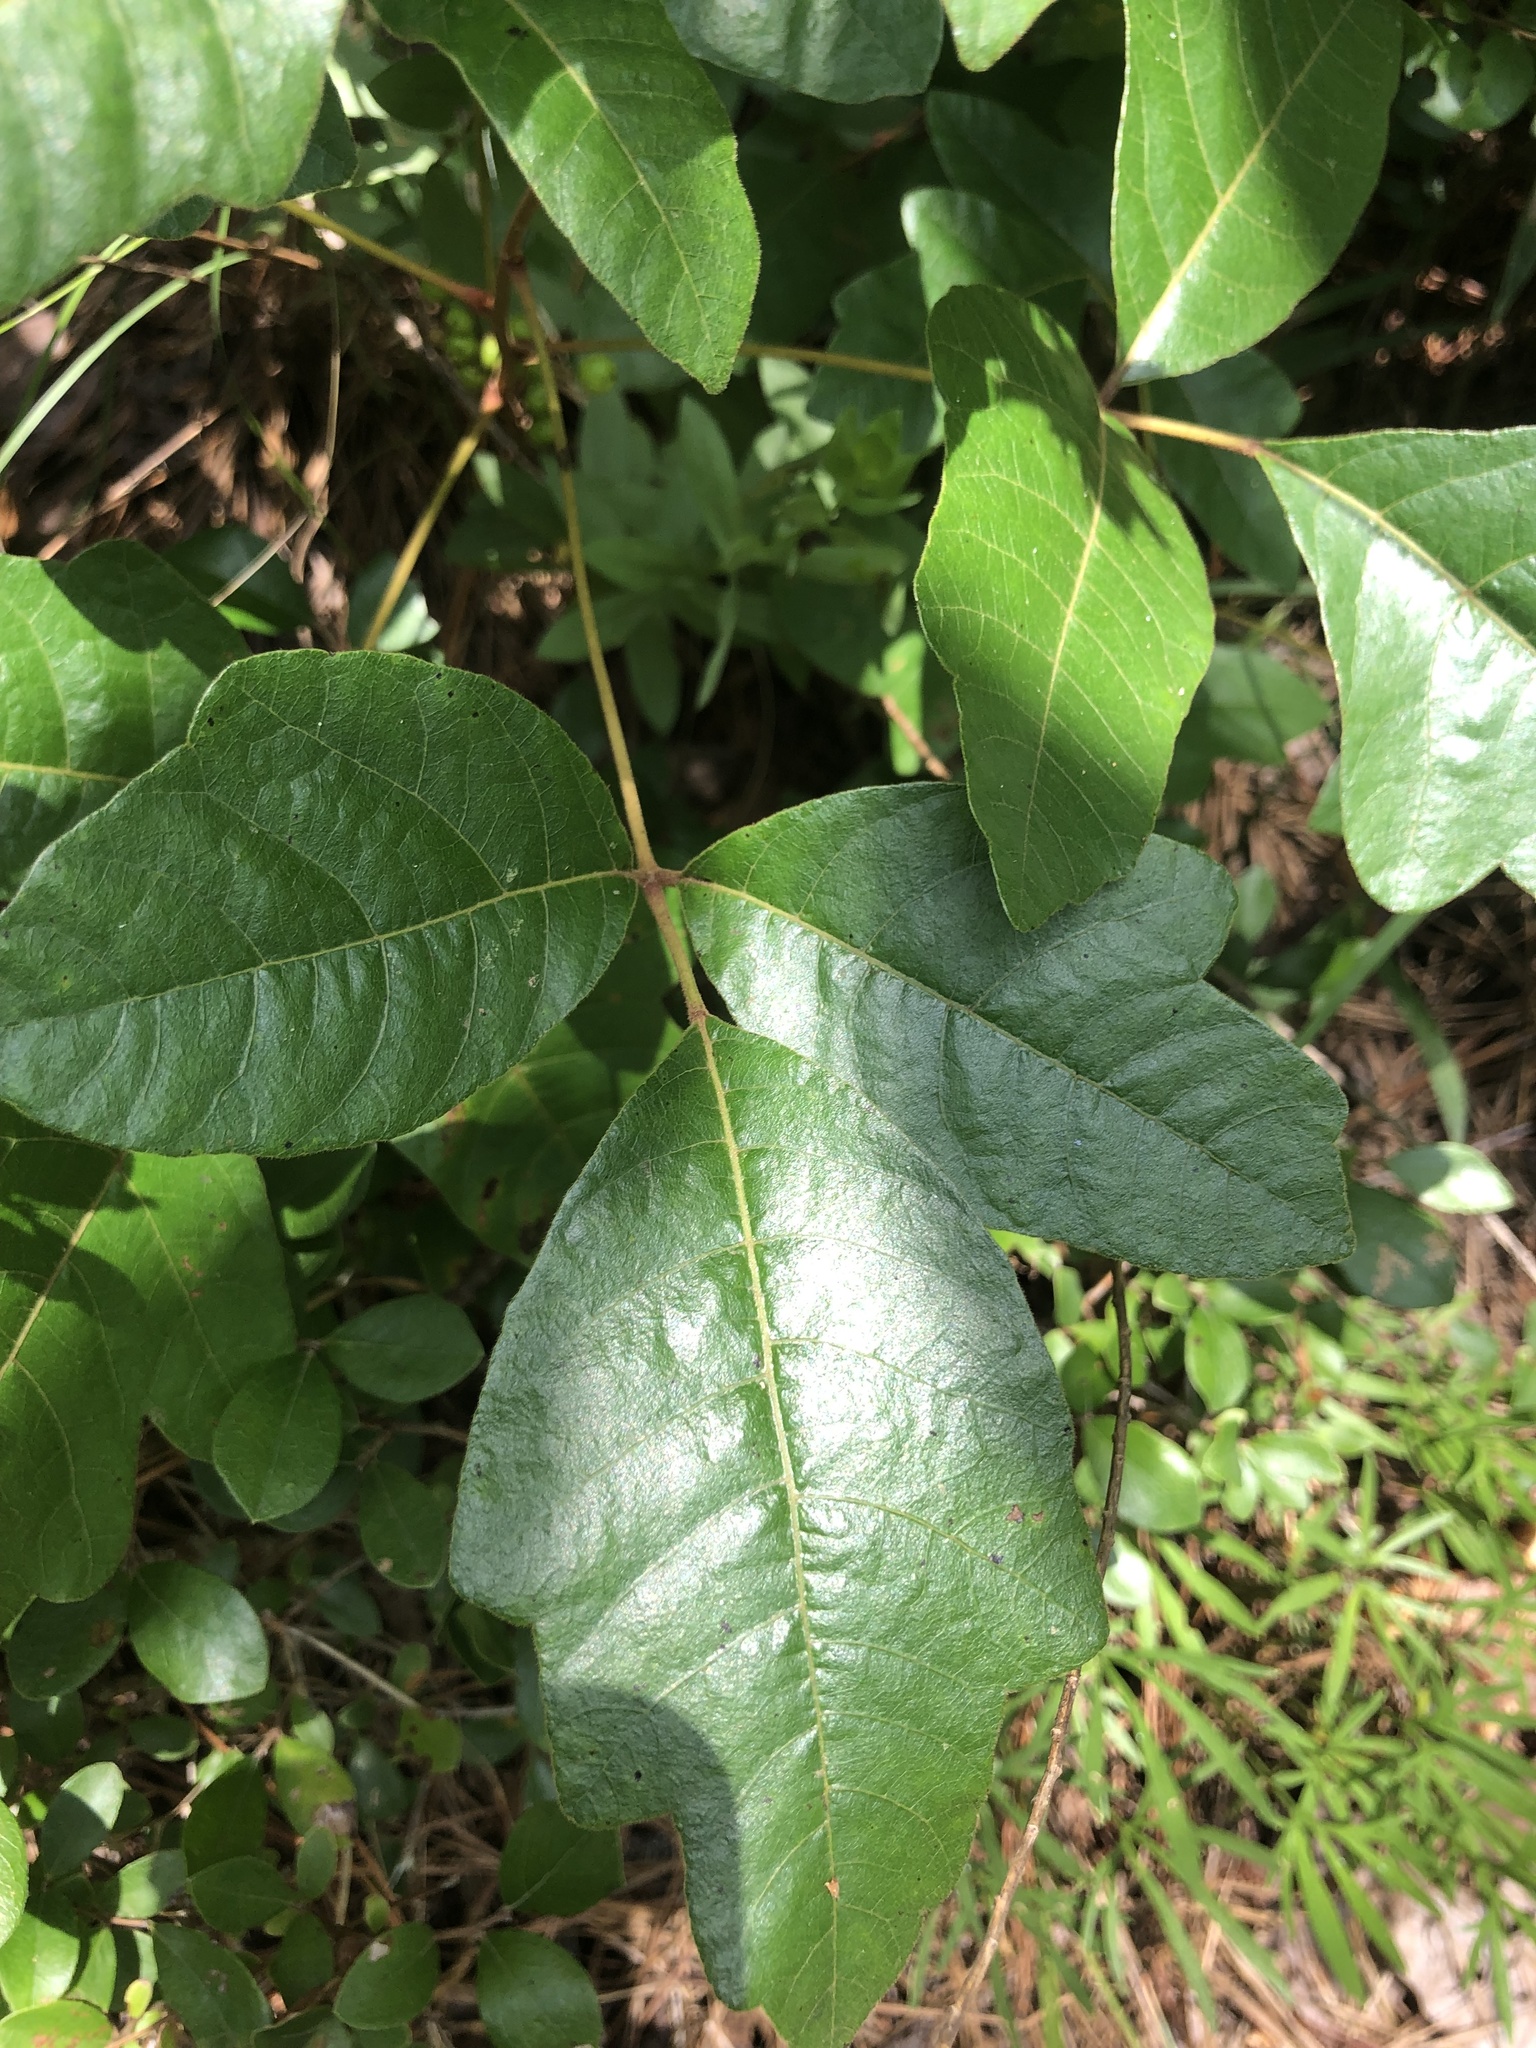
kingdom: Plantae
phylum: Tracheophyta
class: Magnoliopsida
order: Sapindales
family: Anacardiaceae
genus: Toxicodendron
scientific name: Toxicodendron pubescens
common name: Eastern poison-oak
